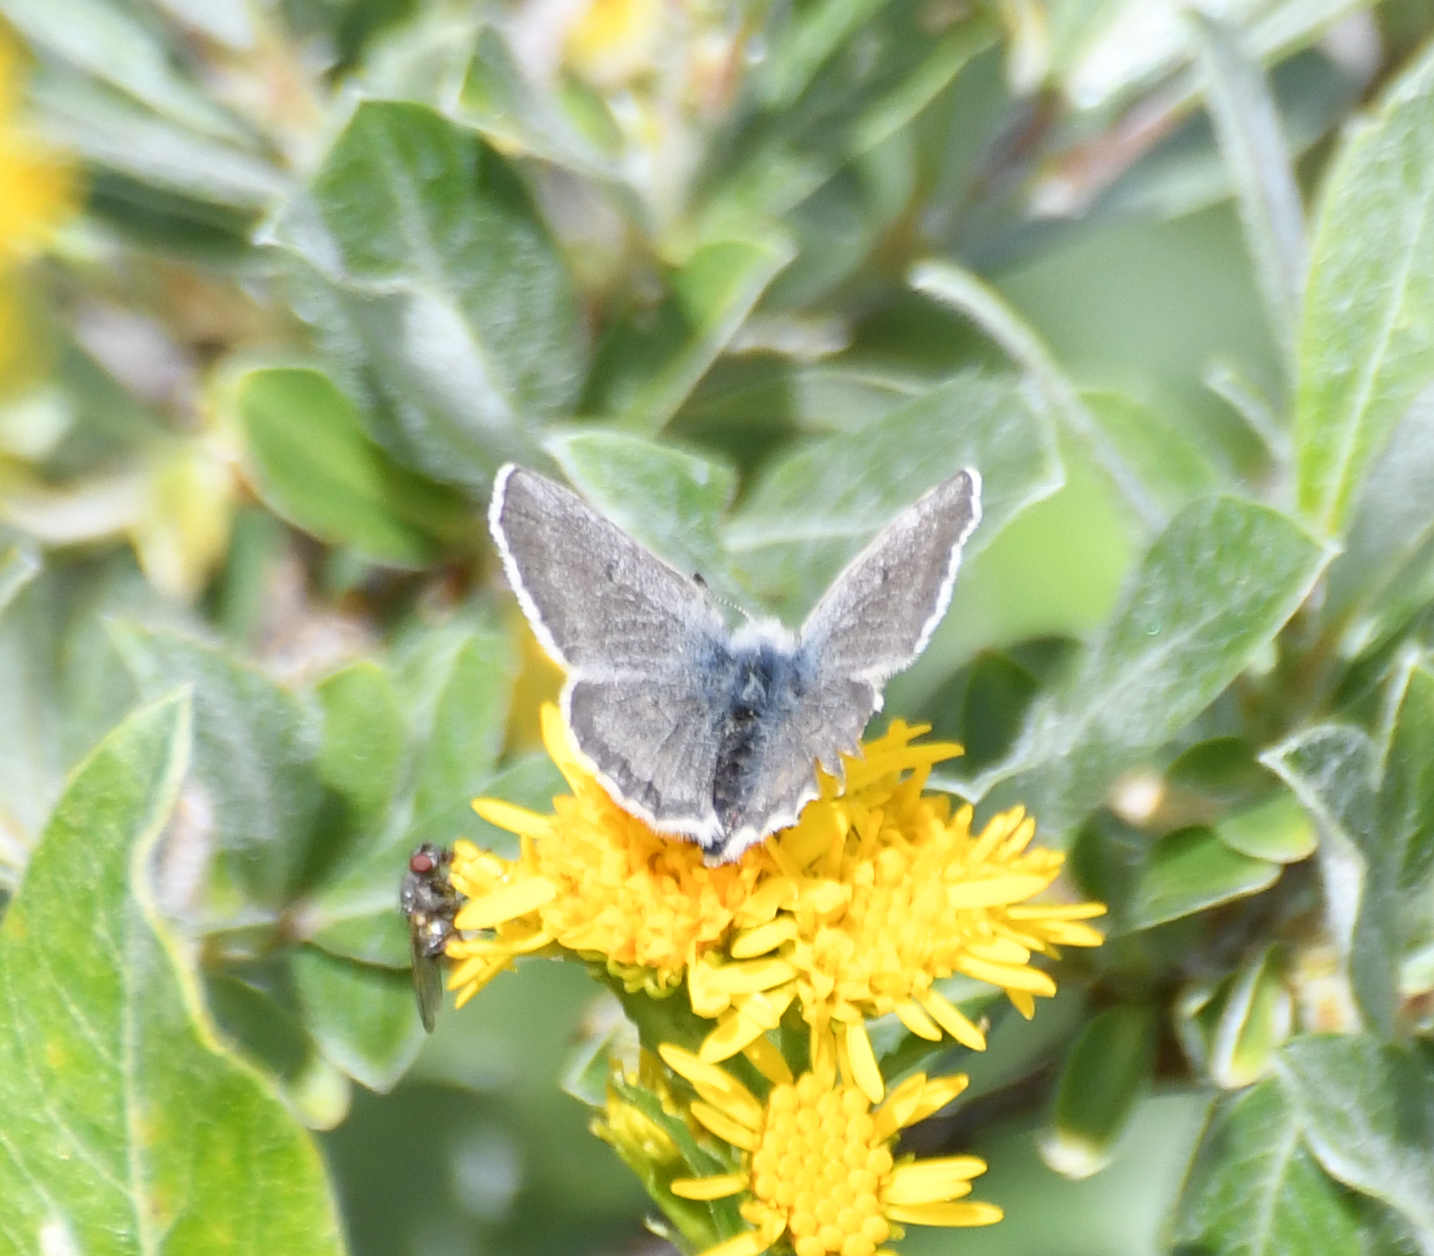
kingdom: Animalia
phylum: Arthropoda
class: Insecta
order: Lepidoptera
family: Lycaenidae
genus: Agriades
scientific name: Agriades glandon
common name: Glandon blue
